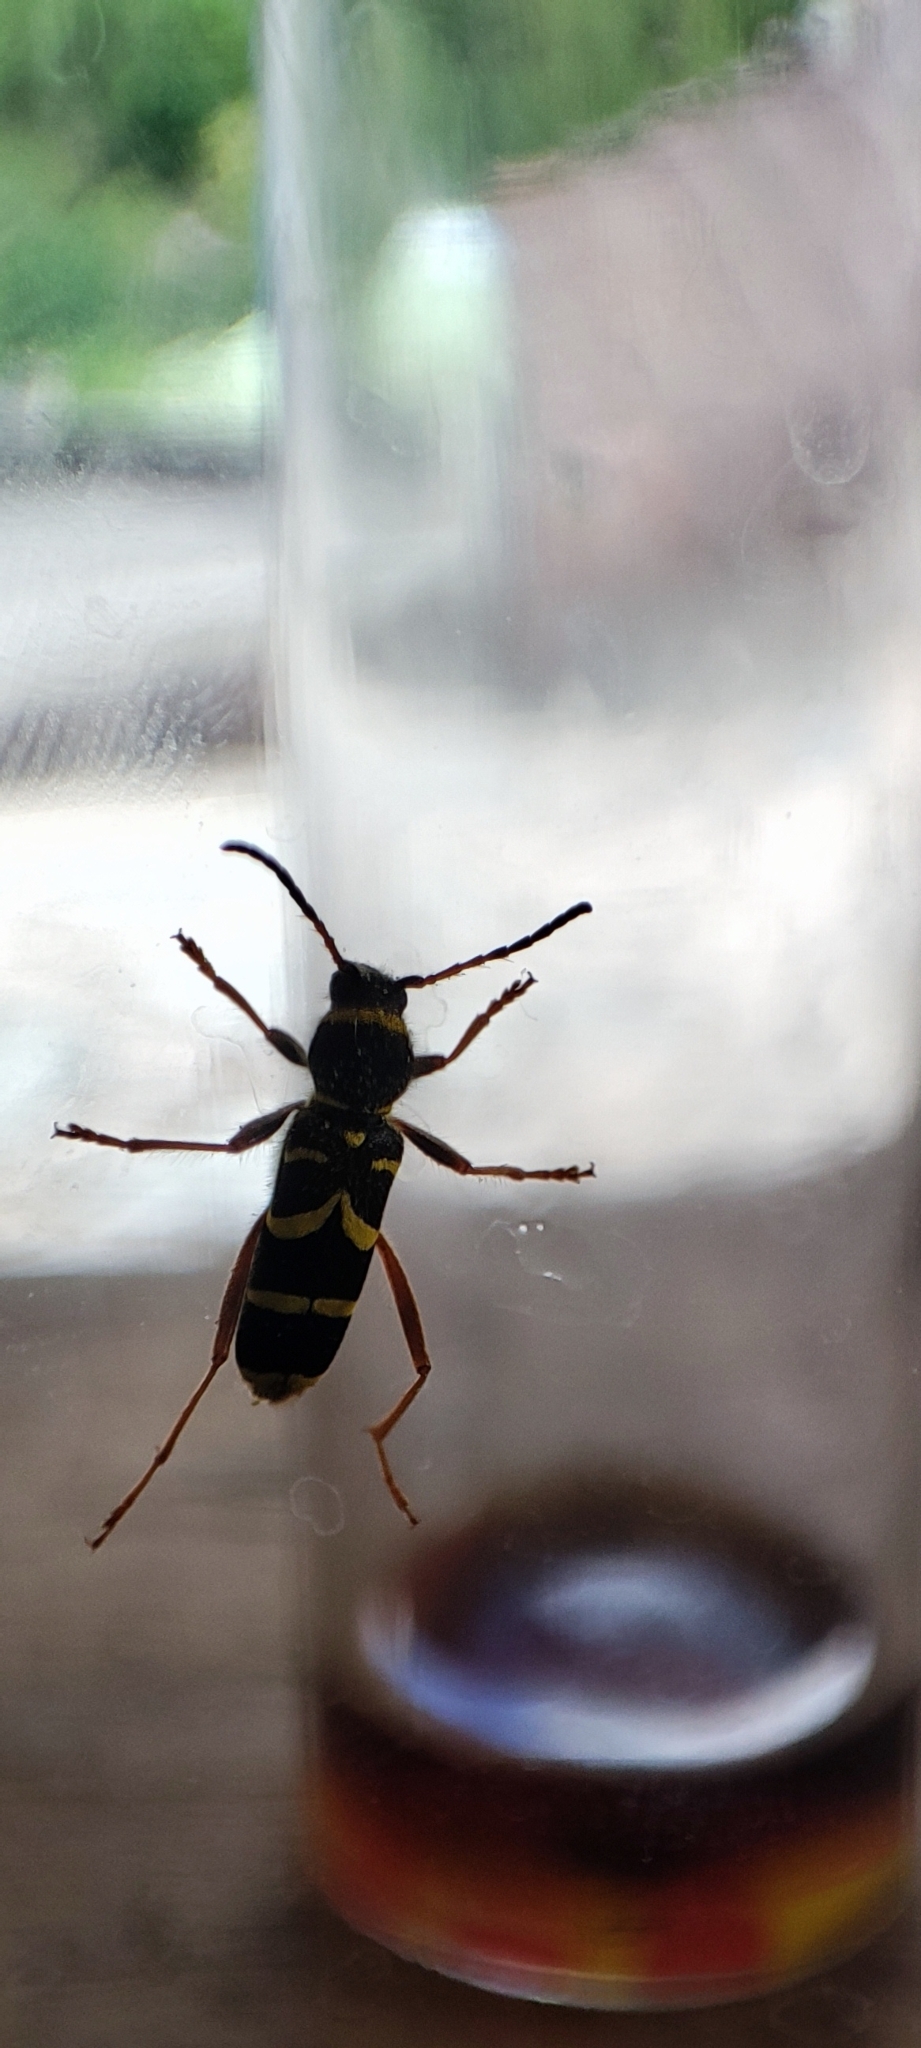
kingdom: Animalia
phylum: Arthropoda
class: Insecta
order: Coleoptera
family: Cerambycidae
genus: Clytus
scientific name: Clytus arietis
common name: Wasp beetle
